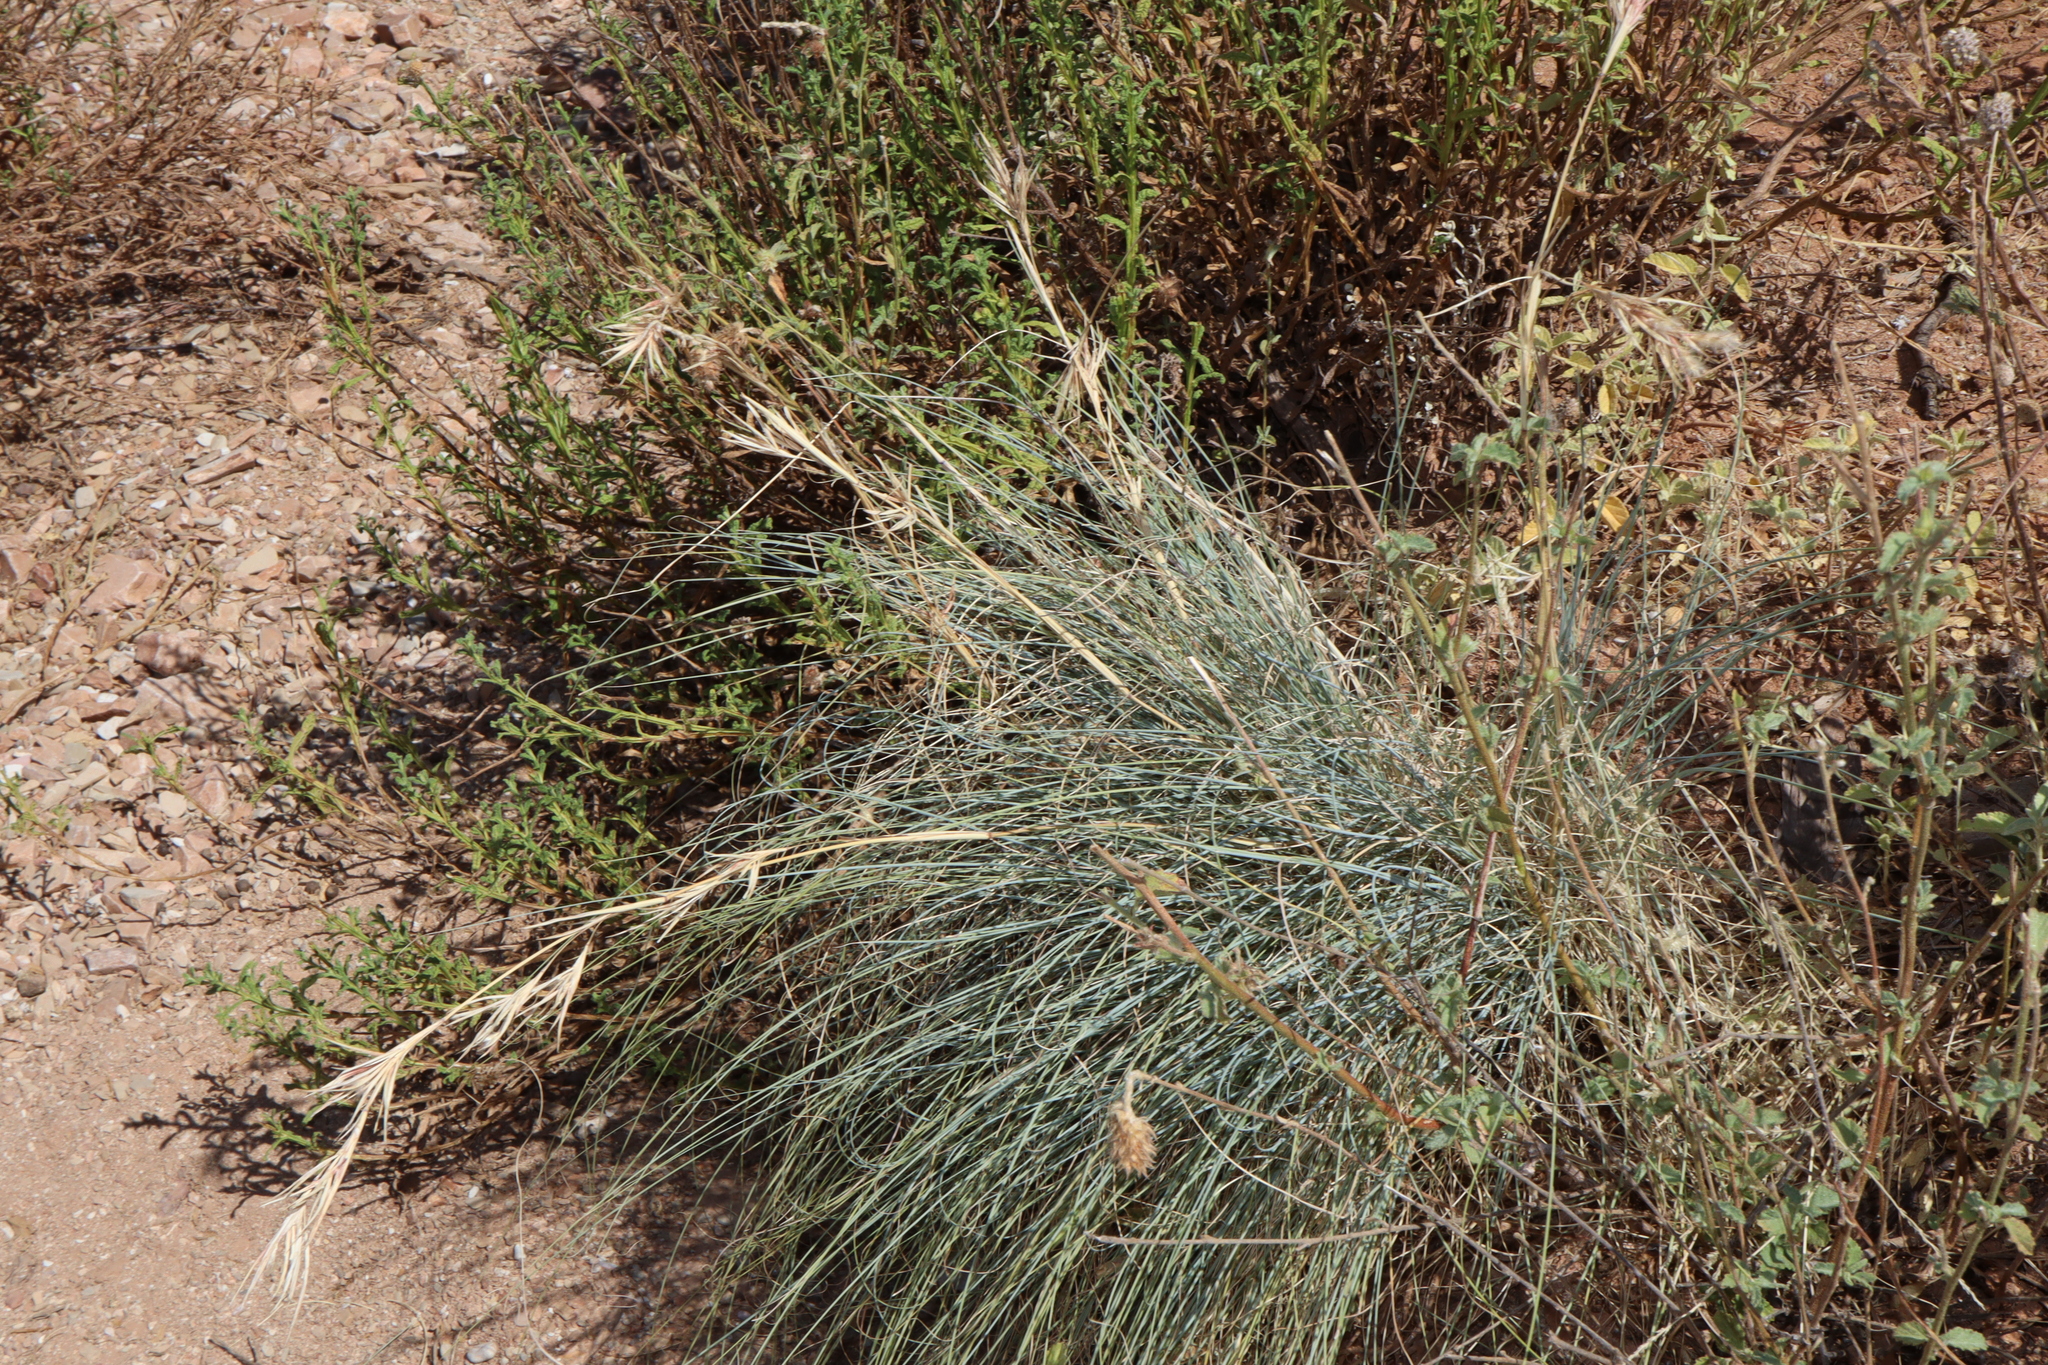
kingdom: Plantae
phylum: Tracheophyta
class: Liliopsida
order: Poales
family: Poaceae
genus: Cymbopogon
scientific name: Cymbopogon ambiguus
